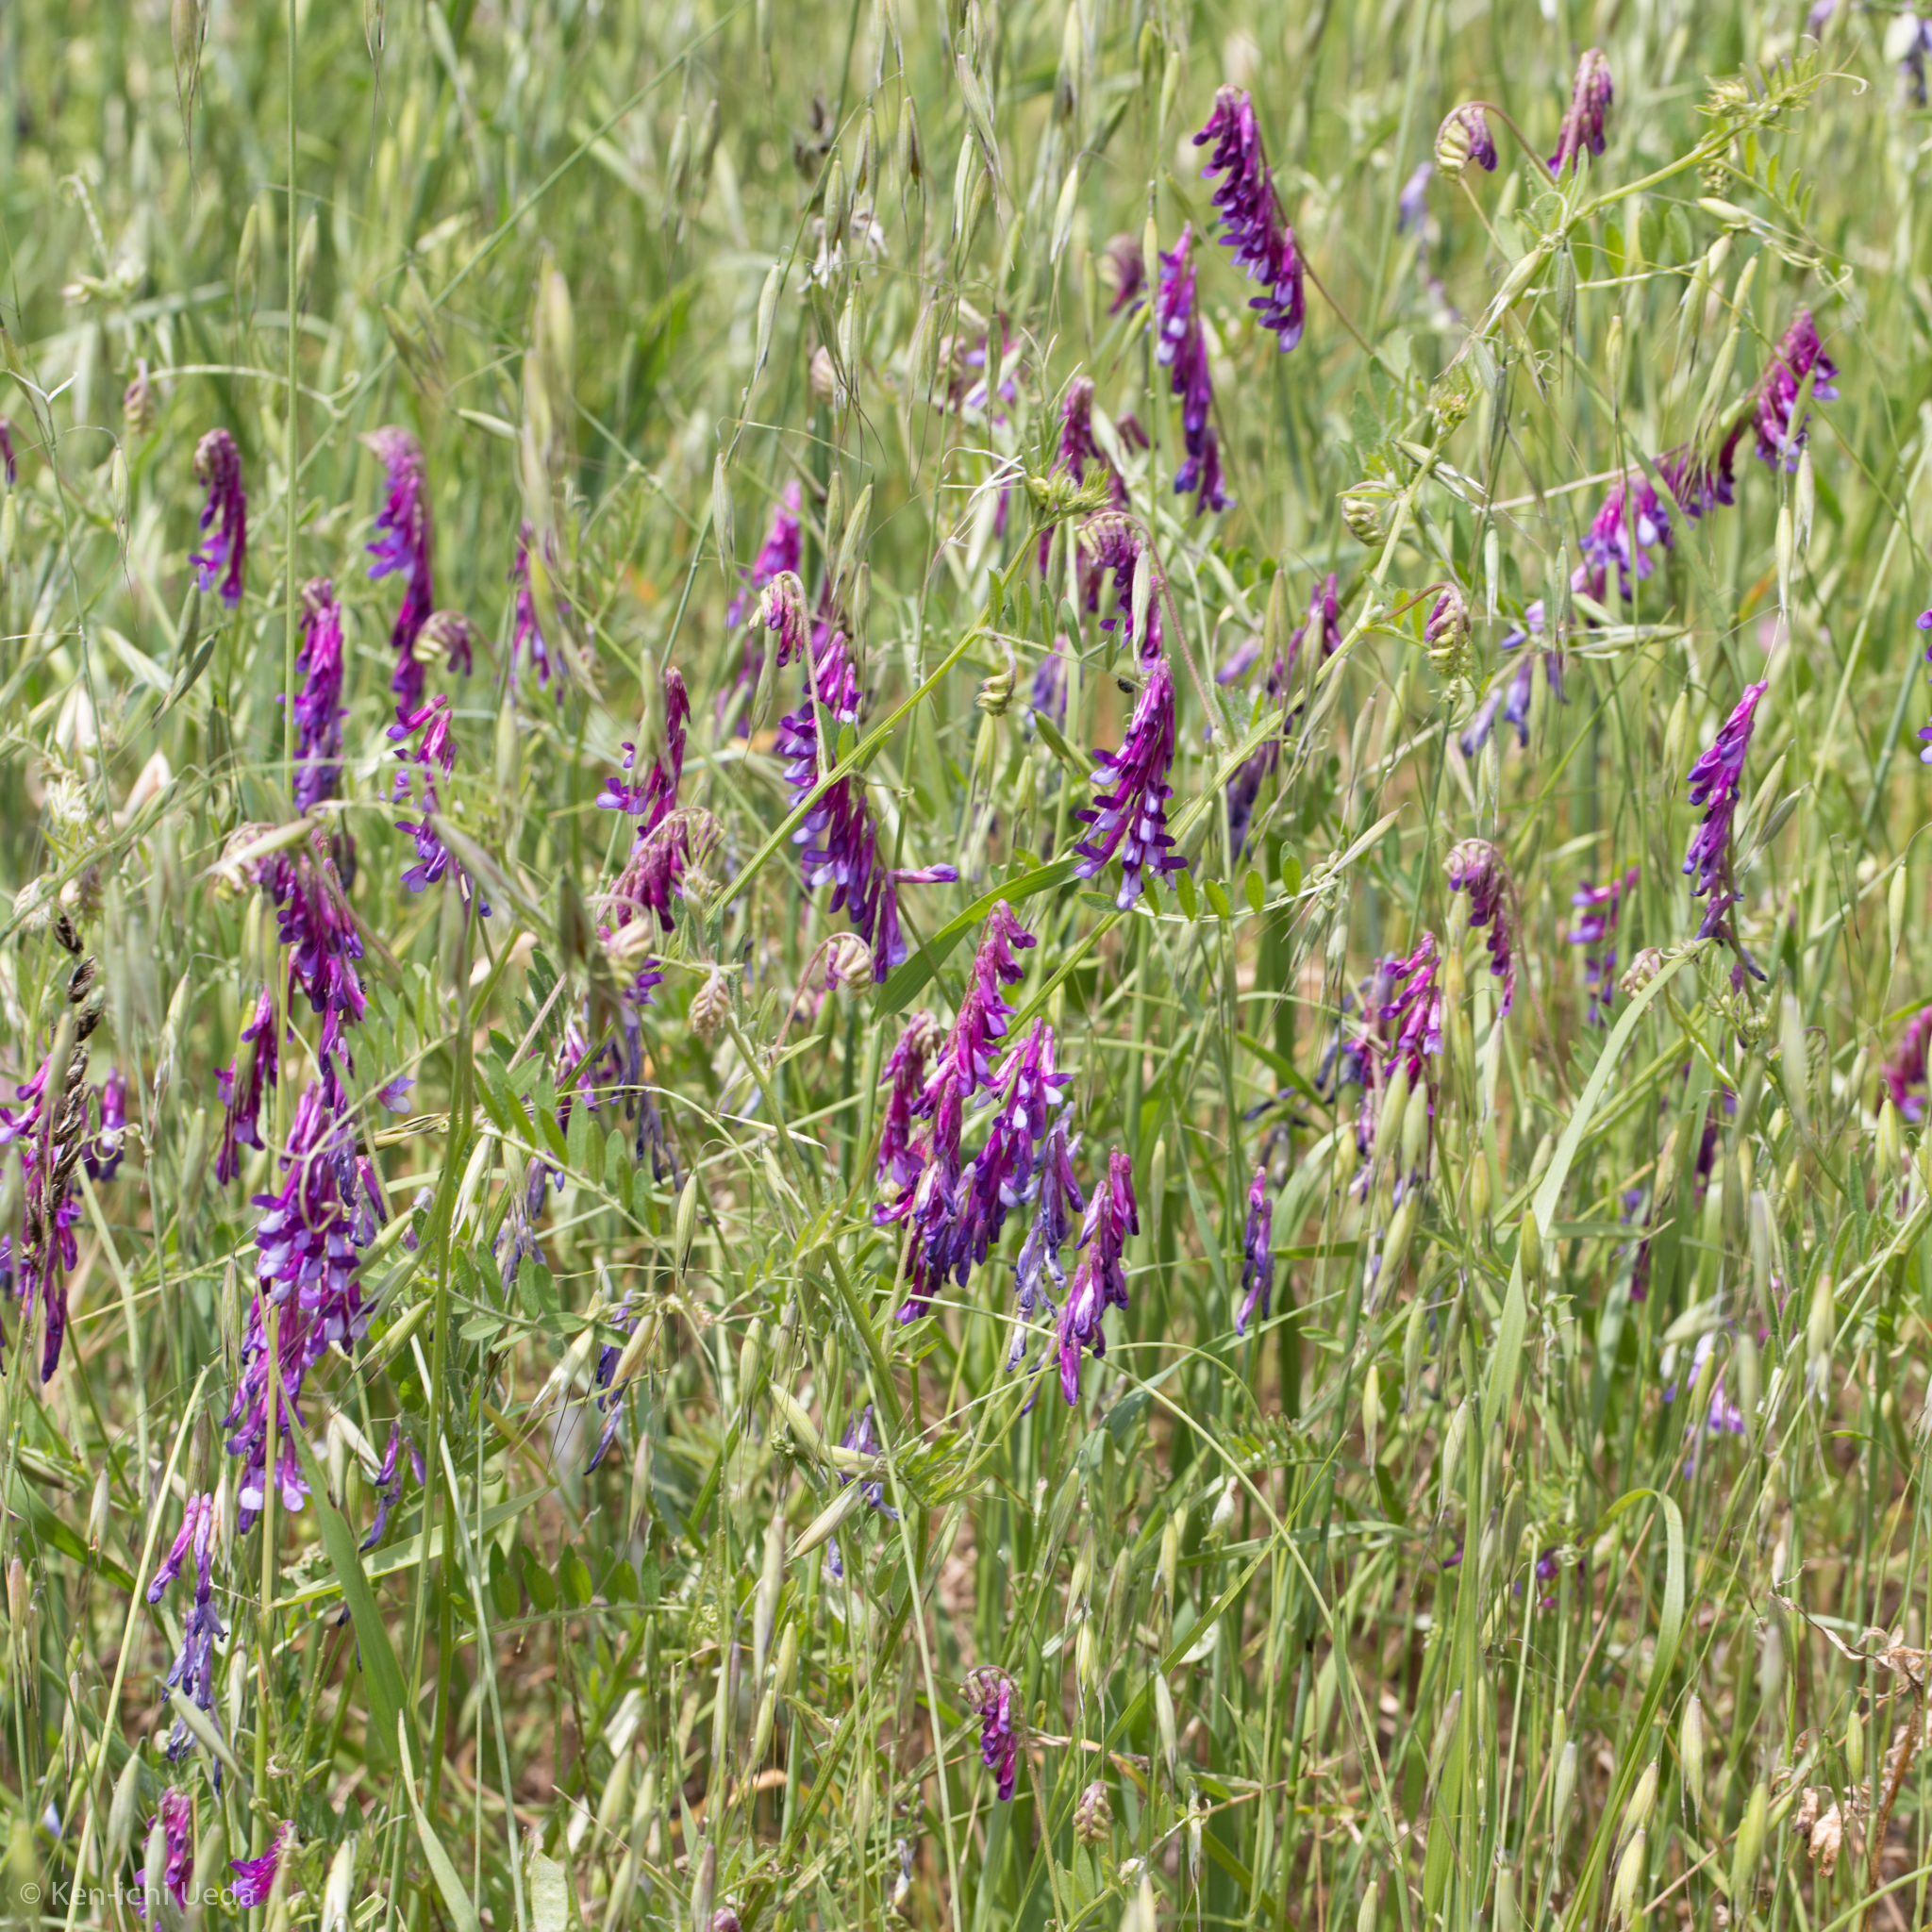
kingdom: Plantae
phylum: Tracheophyta
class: Magnoliopsida
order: Fabales
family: Fabaceae
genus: Vicia
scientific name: Vicia villosa
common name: Fodder vetch
